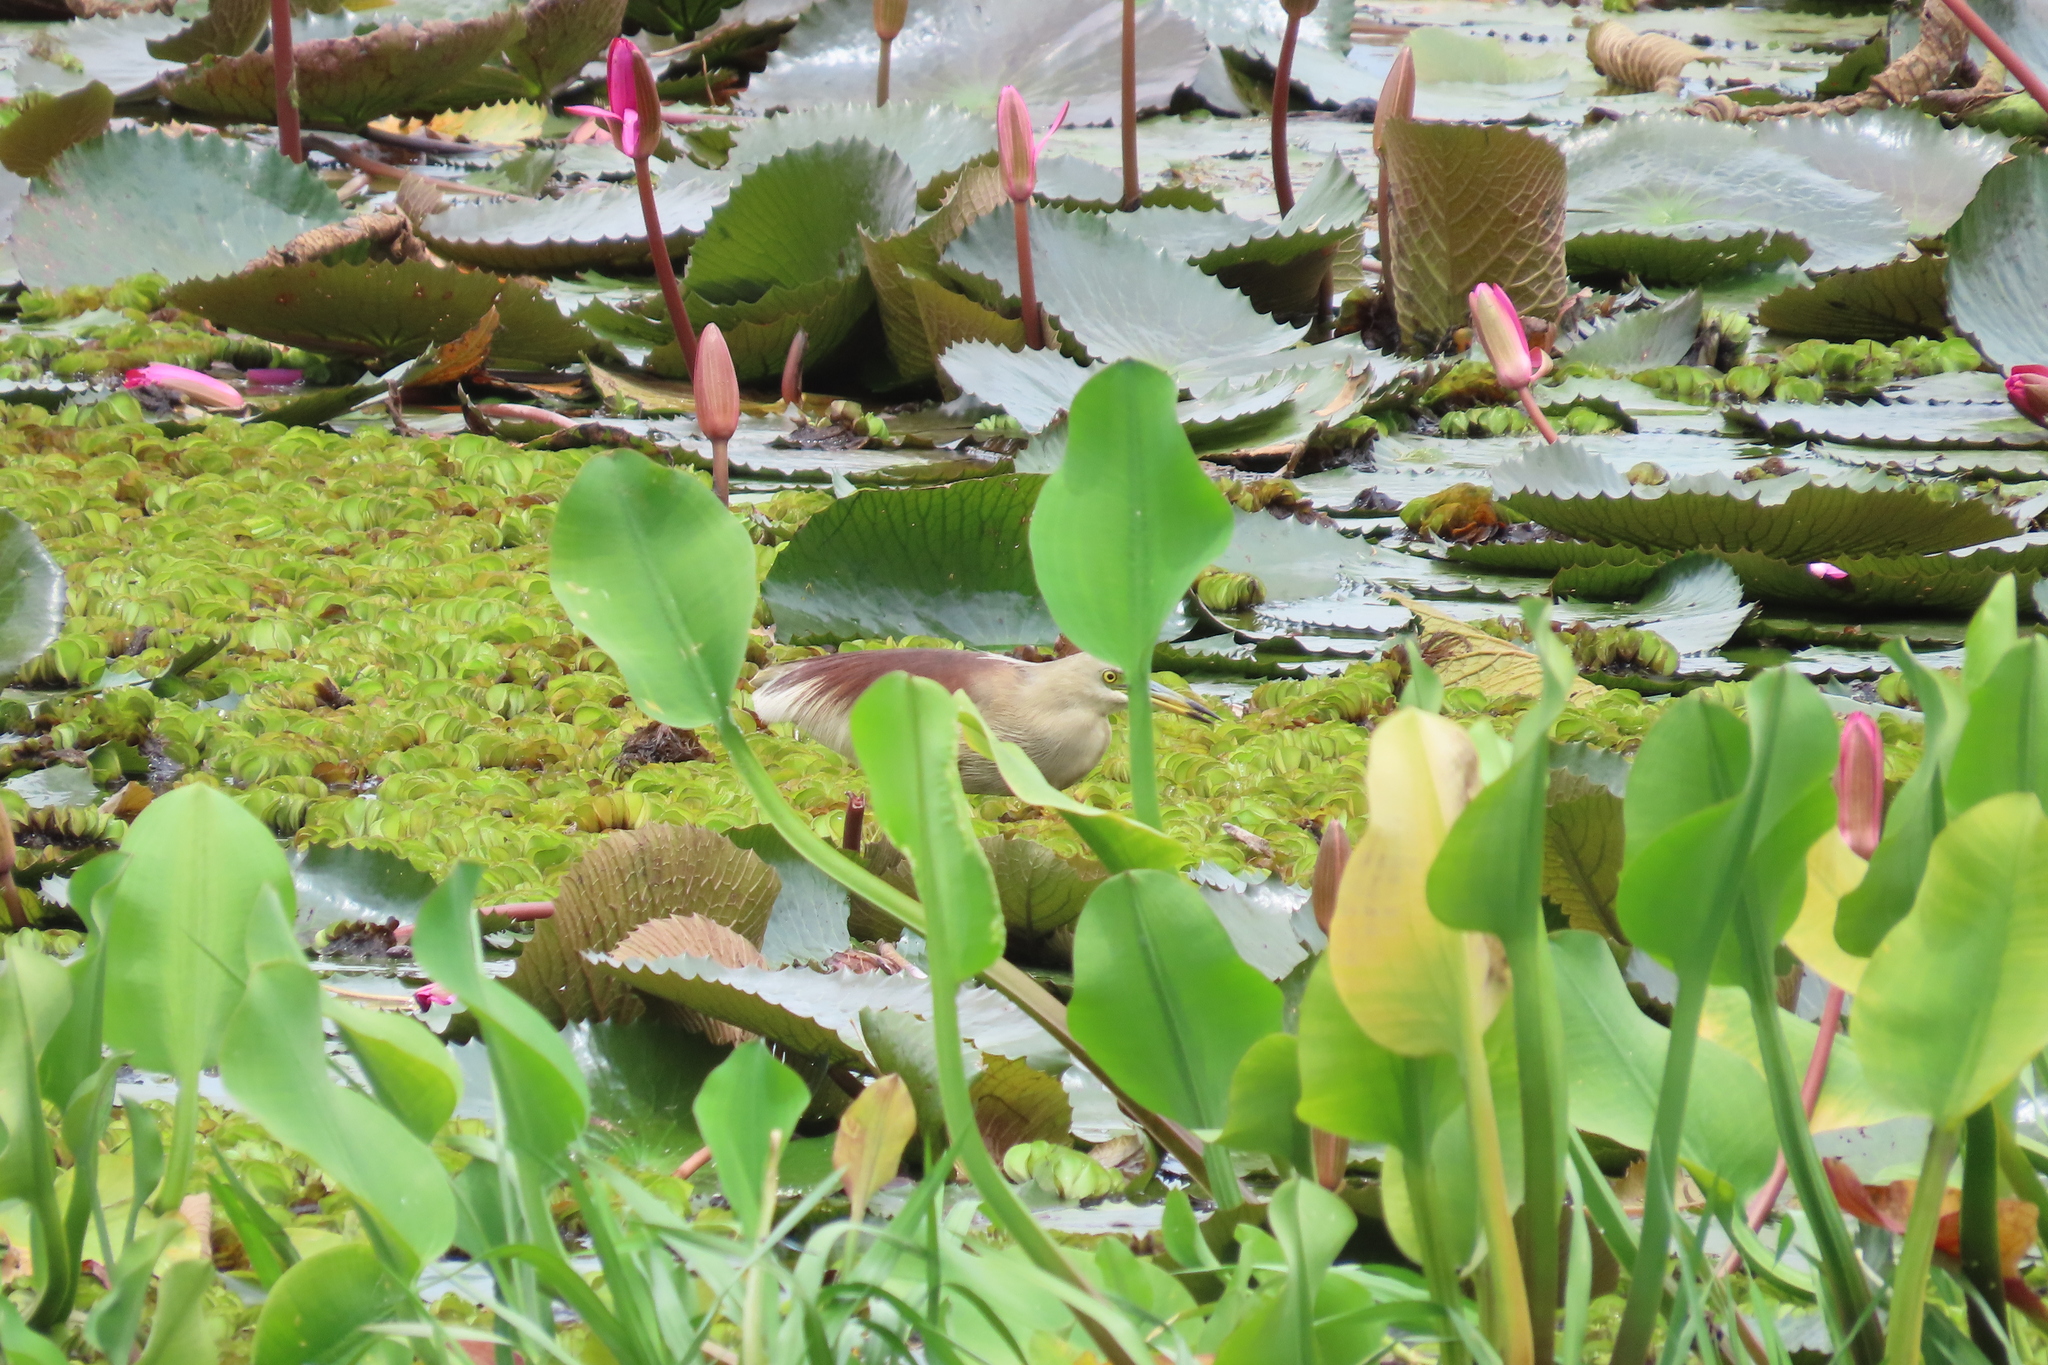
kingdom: Animalia
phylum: Chordata
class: Aves
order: Pelecaniformes
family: Ardeidae
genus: Ardeola
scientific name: Ardeola grayii
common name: Indian pond heron
